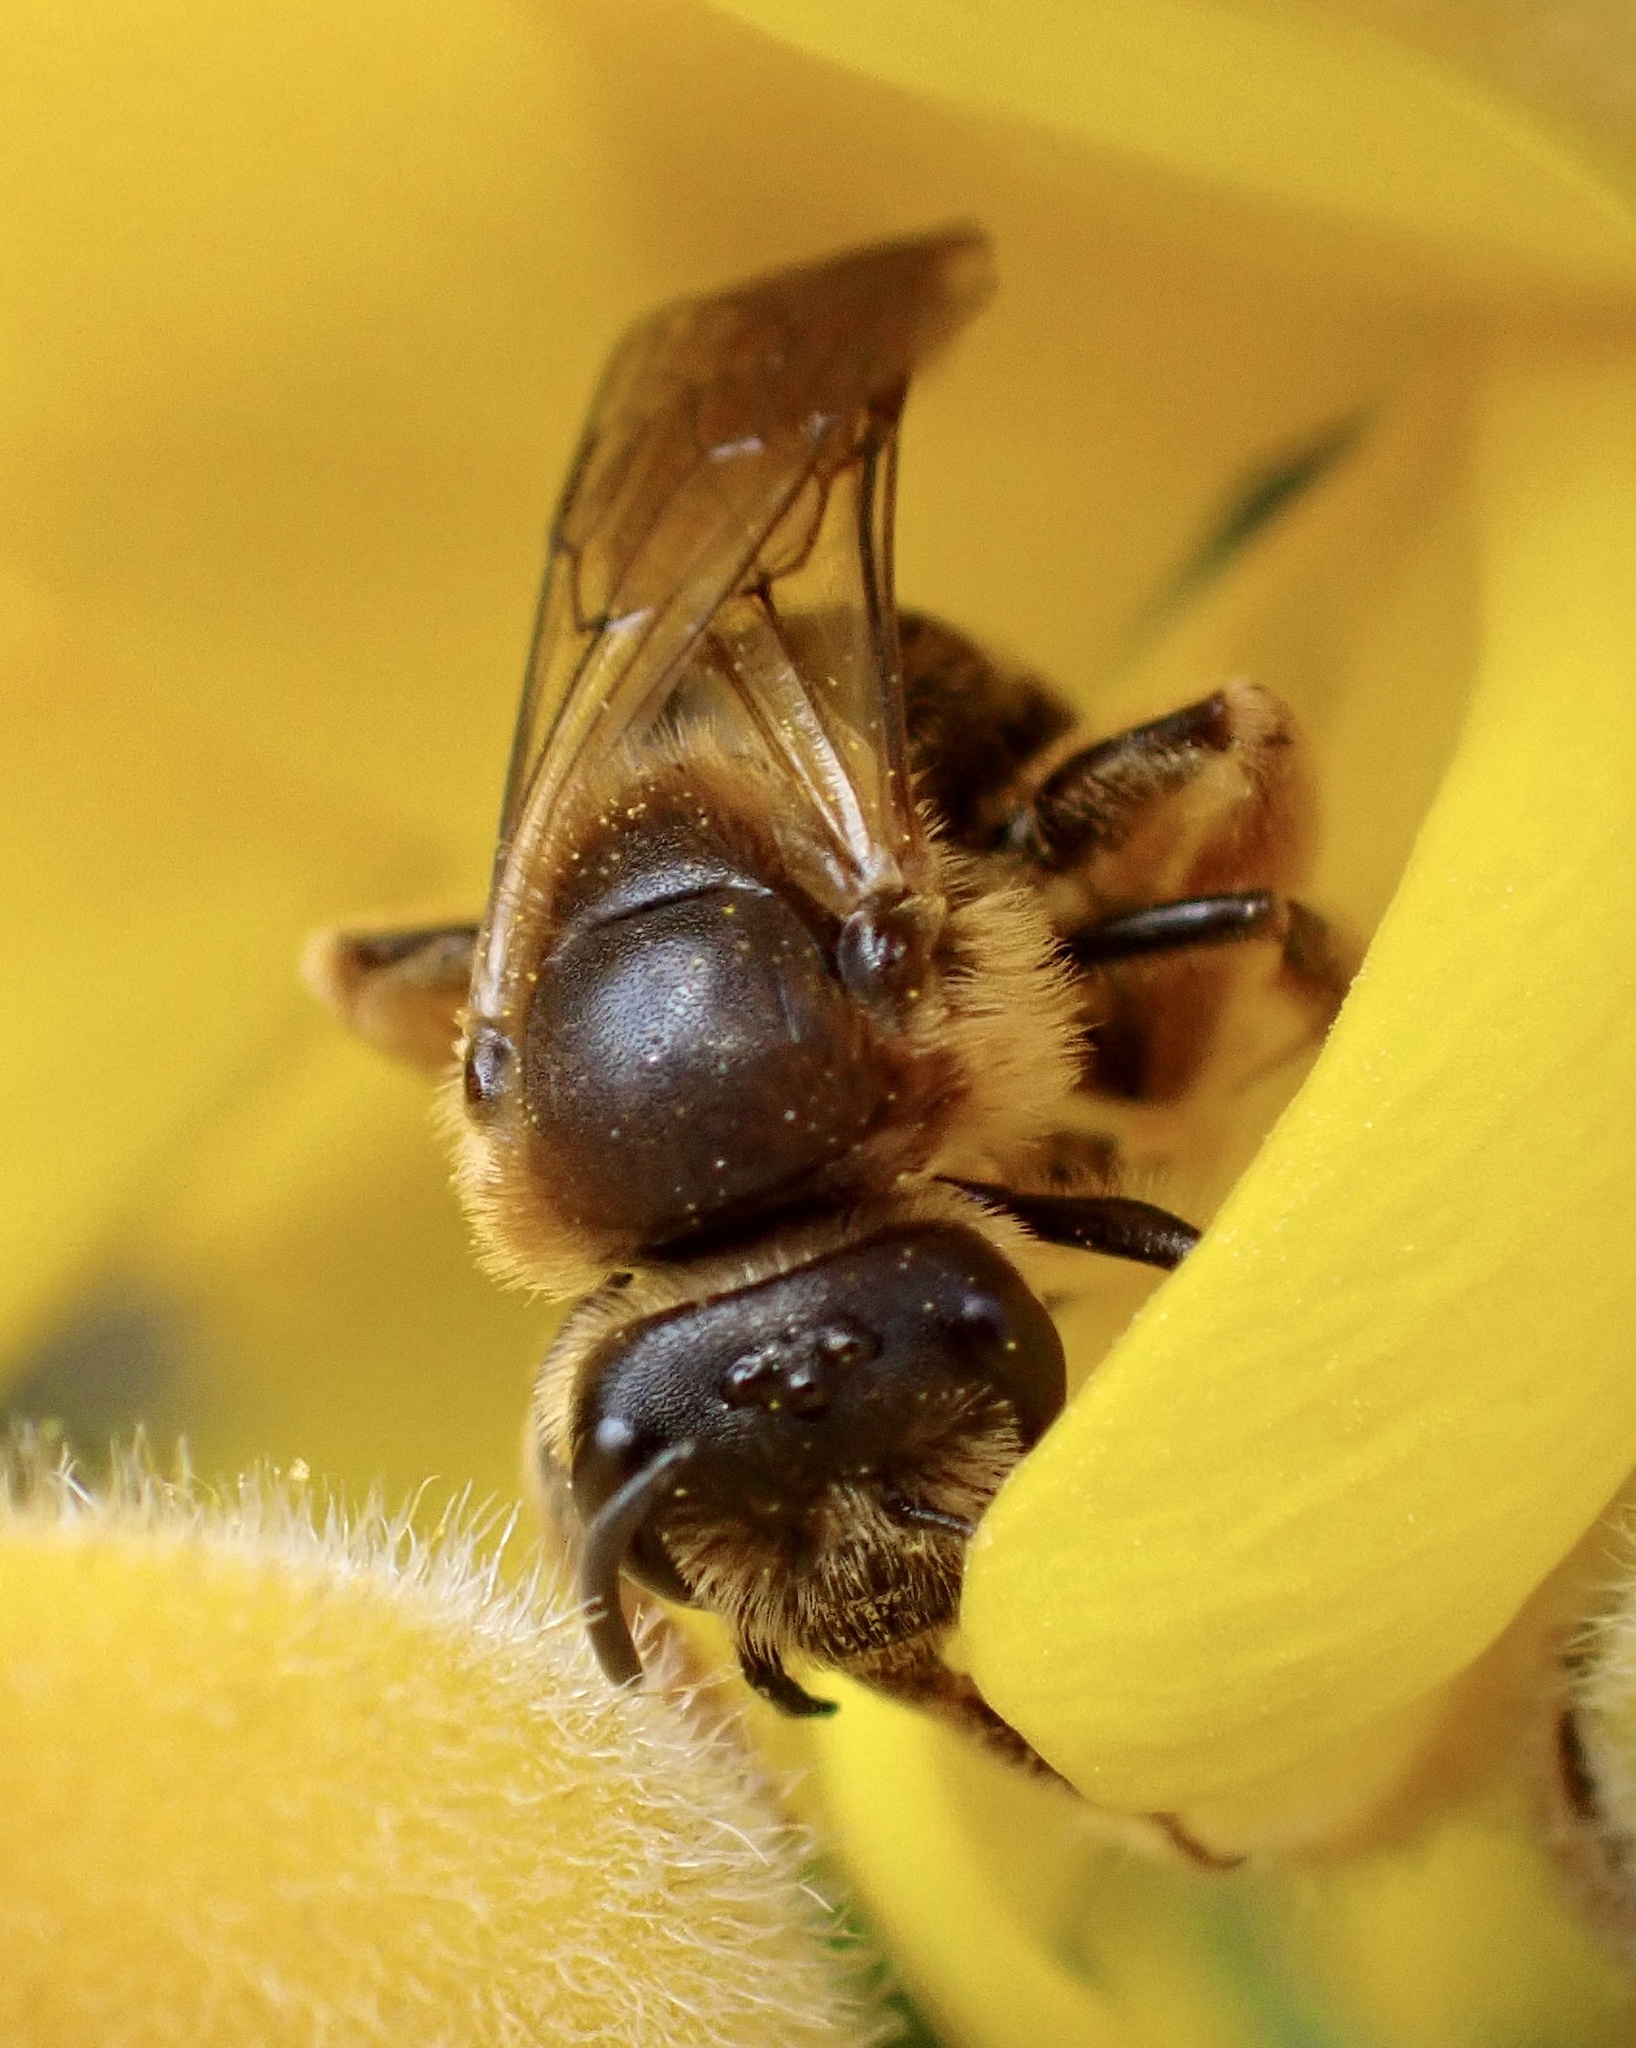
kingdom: Animalia
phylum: Arthropoda
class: Insecta
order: Hymenoptera
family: Halictidae
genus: Halictus
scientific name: Halictus rubicundus
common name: Orange-legged furrow bee
